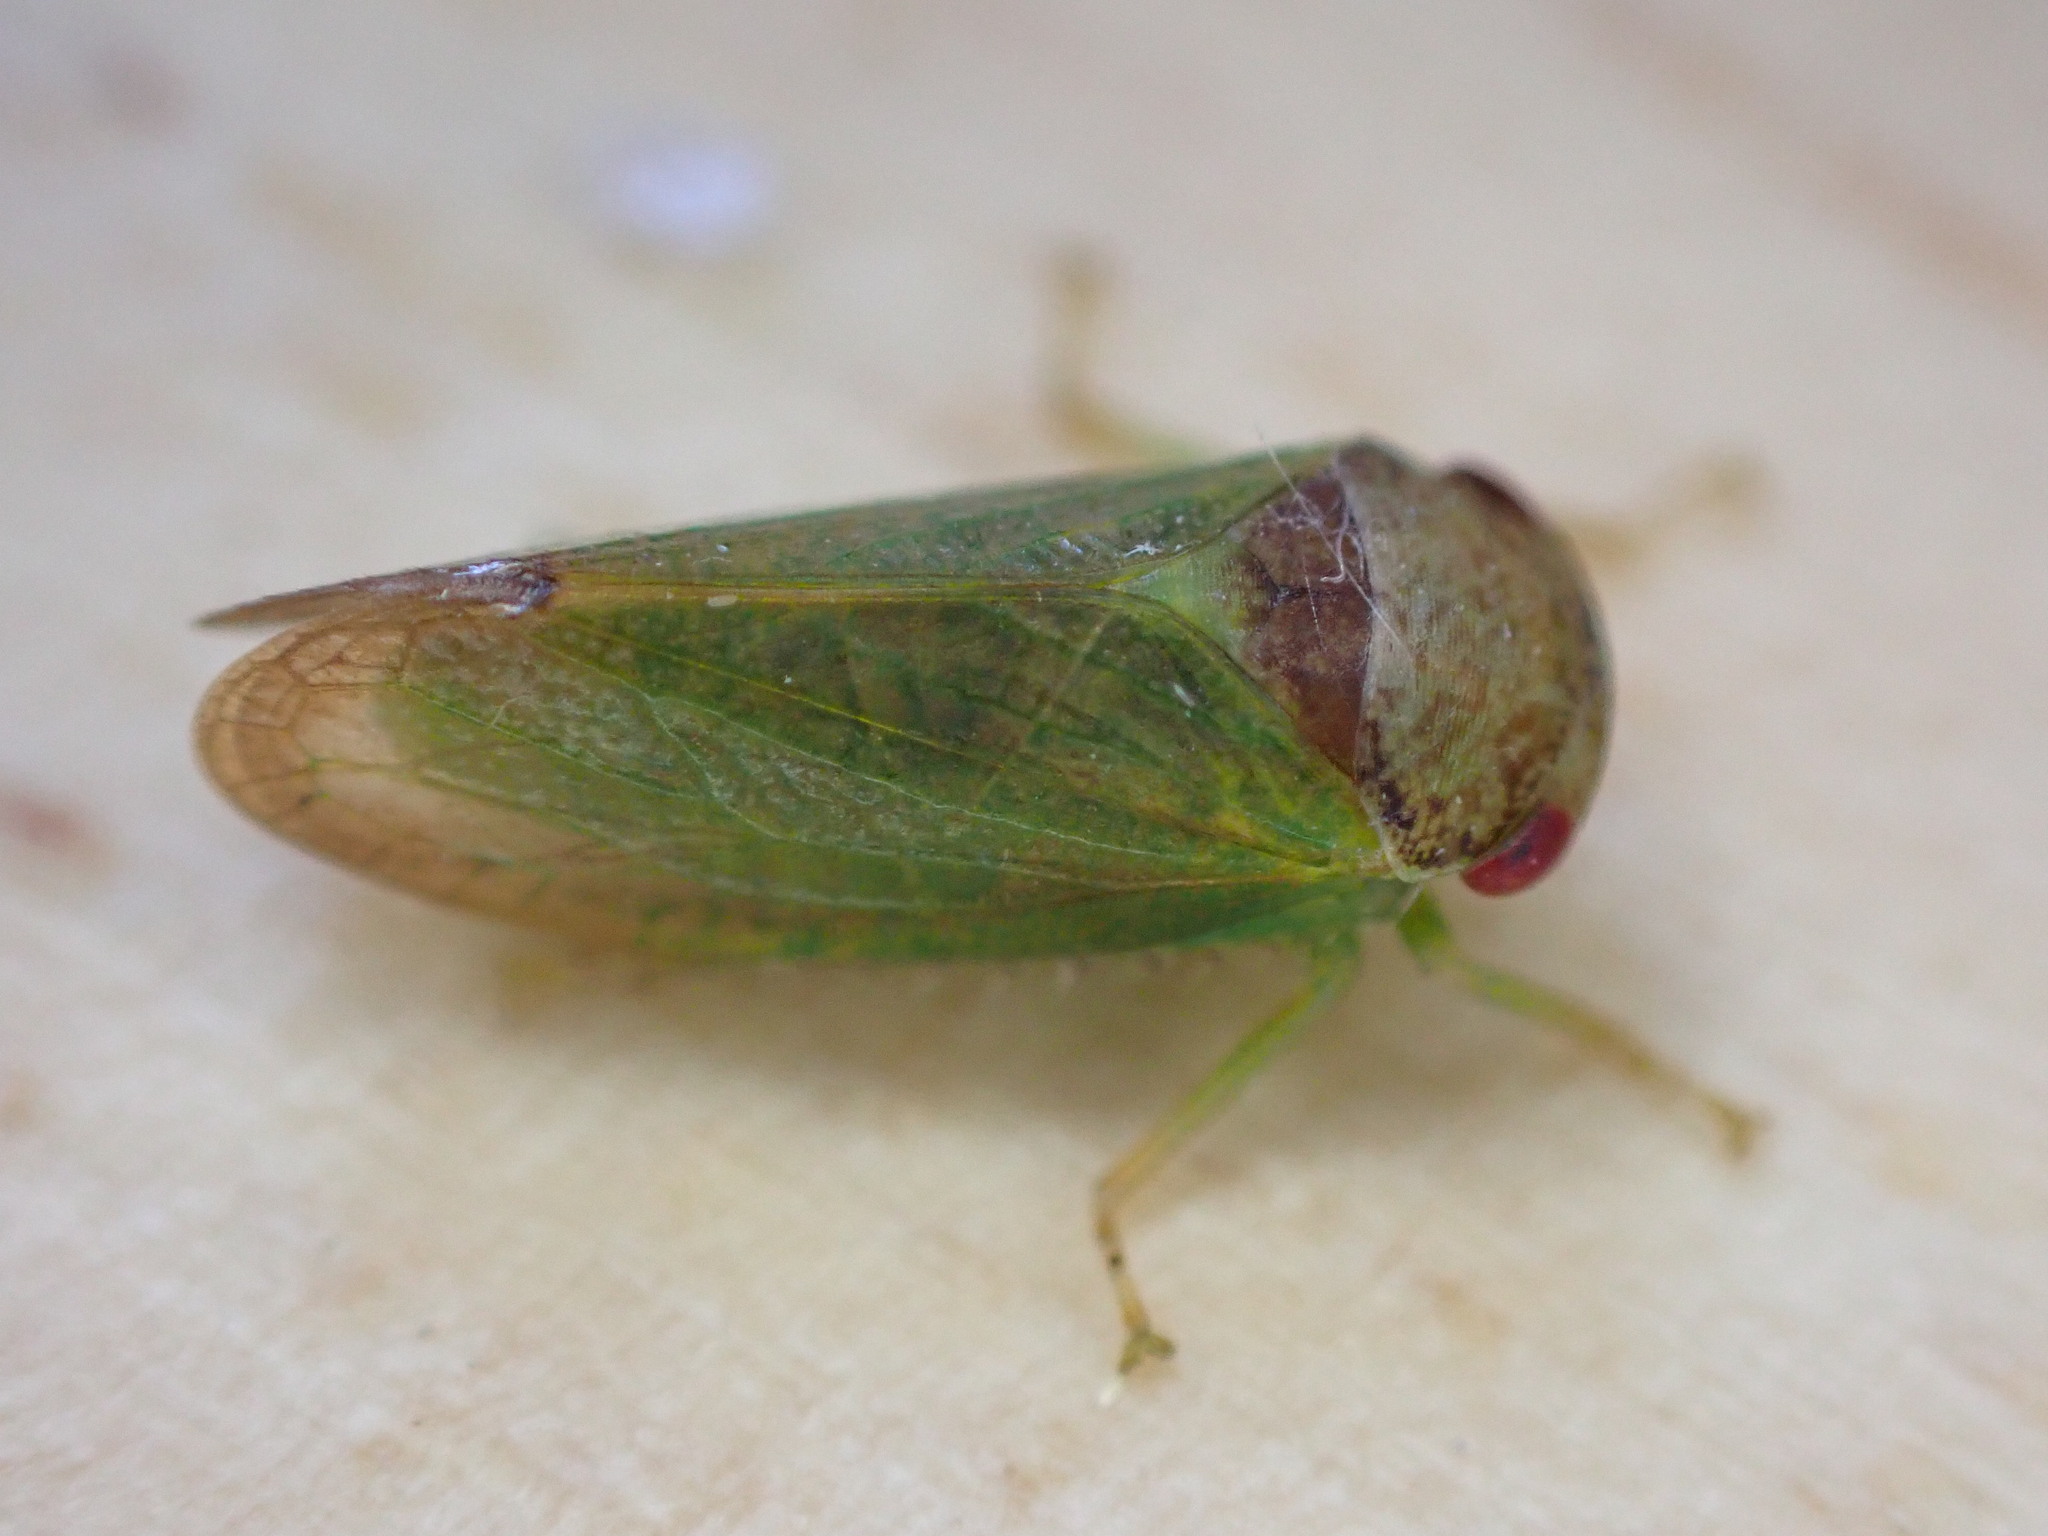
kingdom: Animalia
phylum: Arthropoda
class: Insecta
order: Hemiptera
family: Cicadellidae
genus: Iassus
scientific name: Iassus lanio
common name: Leafhopper
